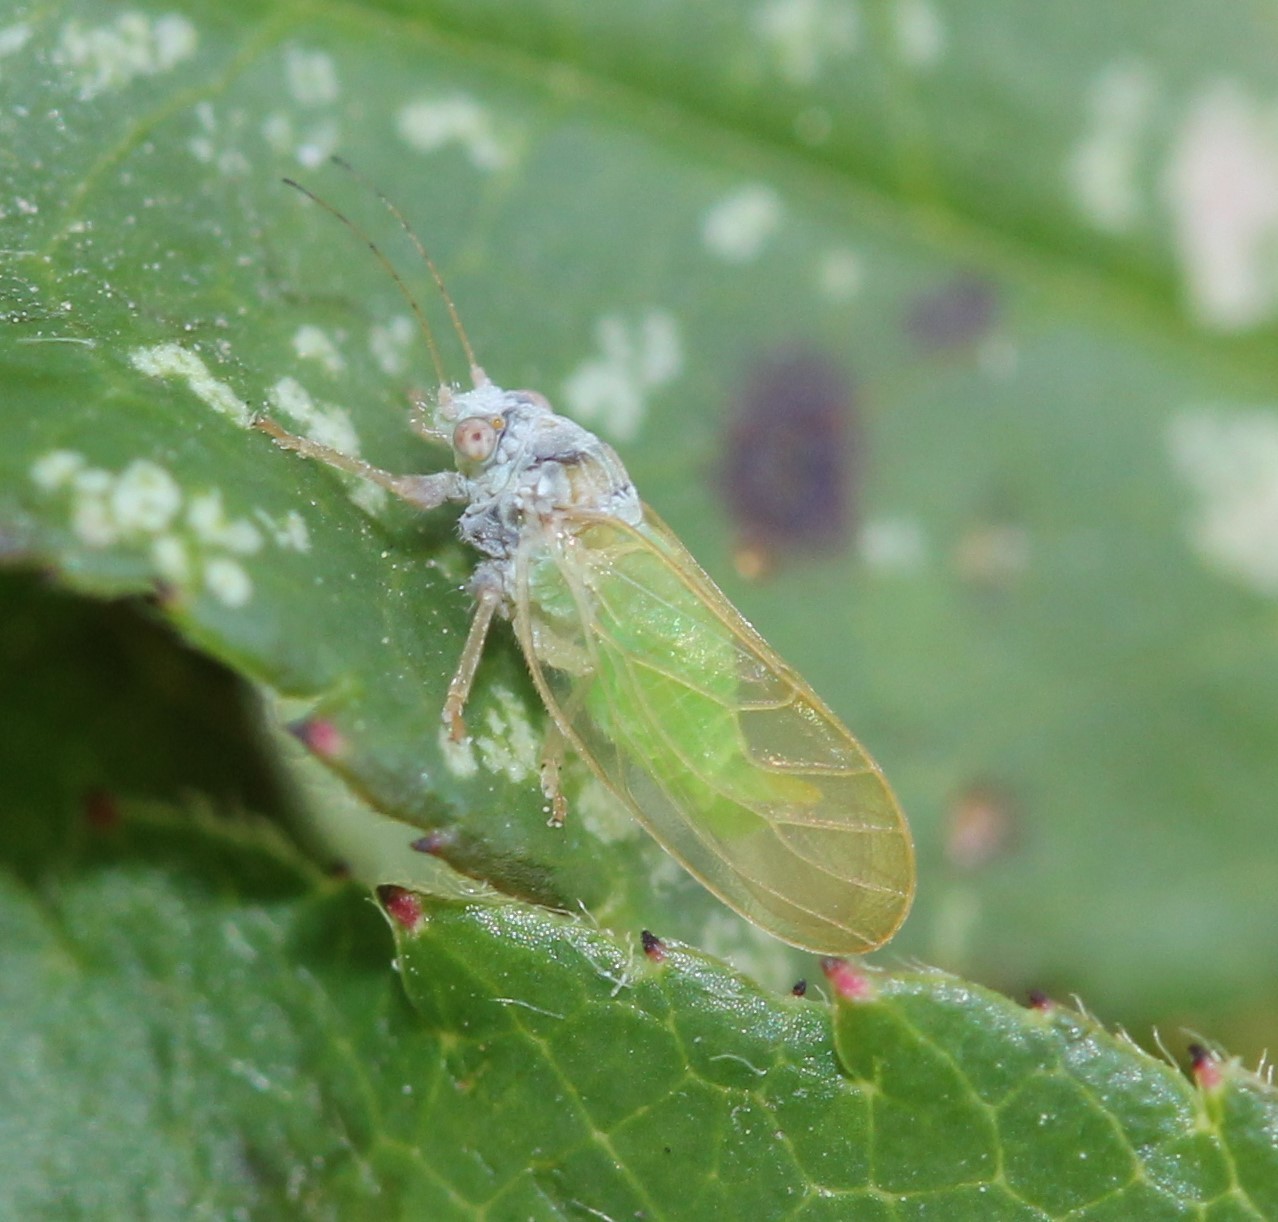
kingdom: Animalia
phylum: Arthropoda
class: Insecta
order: Hemiptera
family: Psyllidae
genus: Psylla
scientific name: Psylla buxi
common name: Boxwood psyllid
